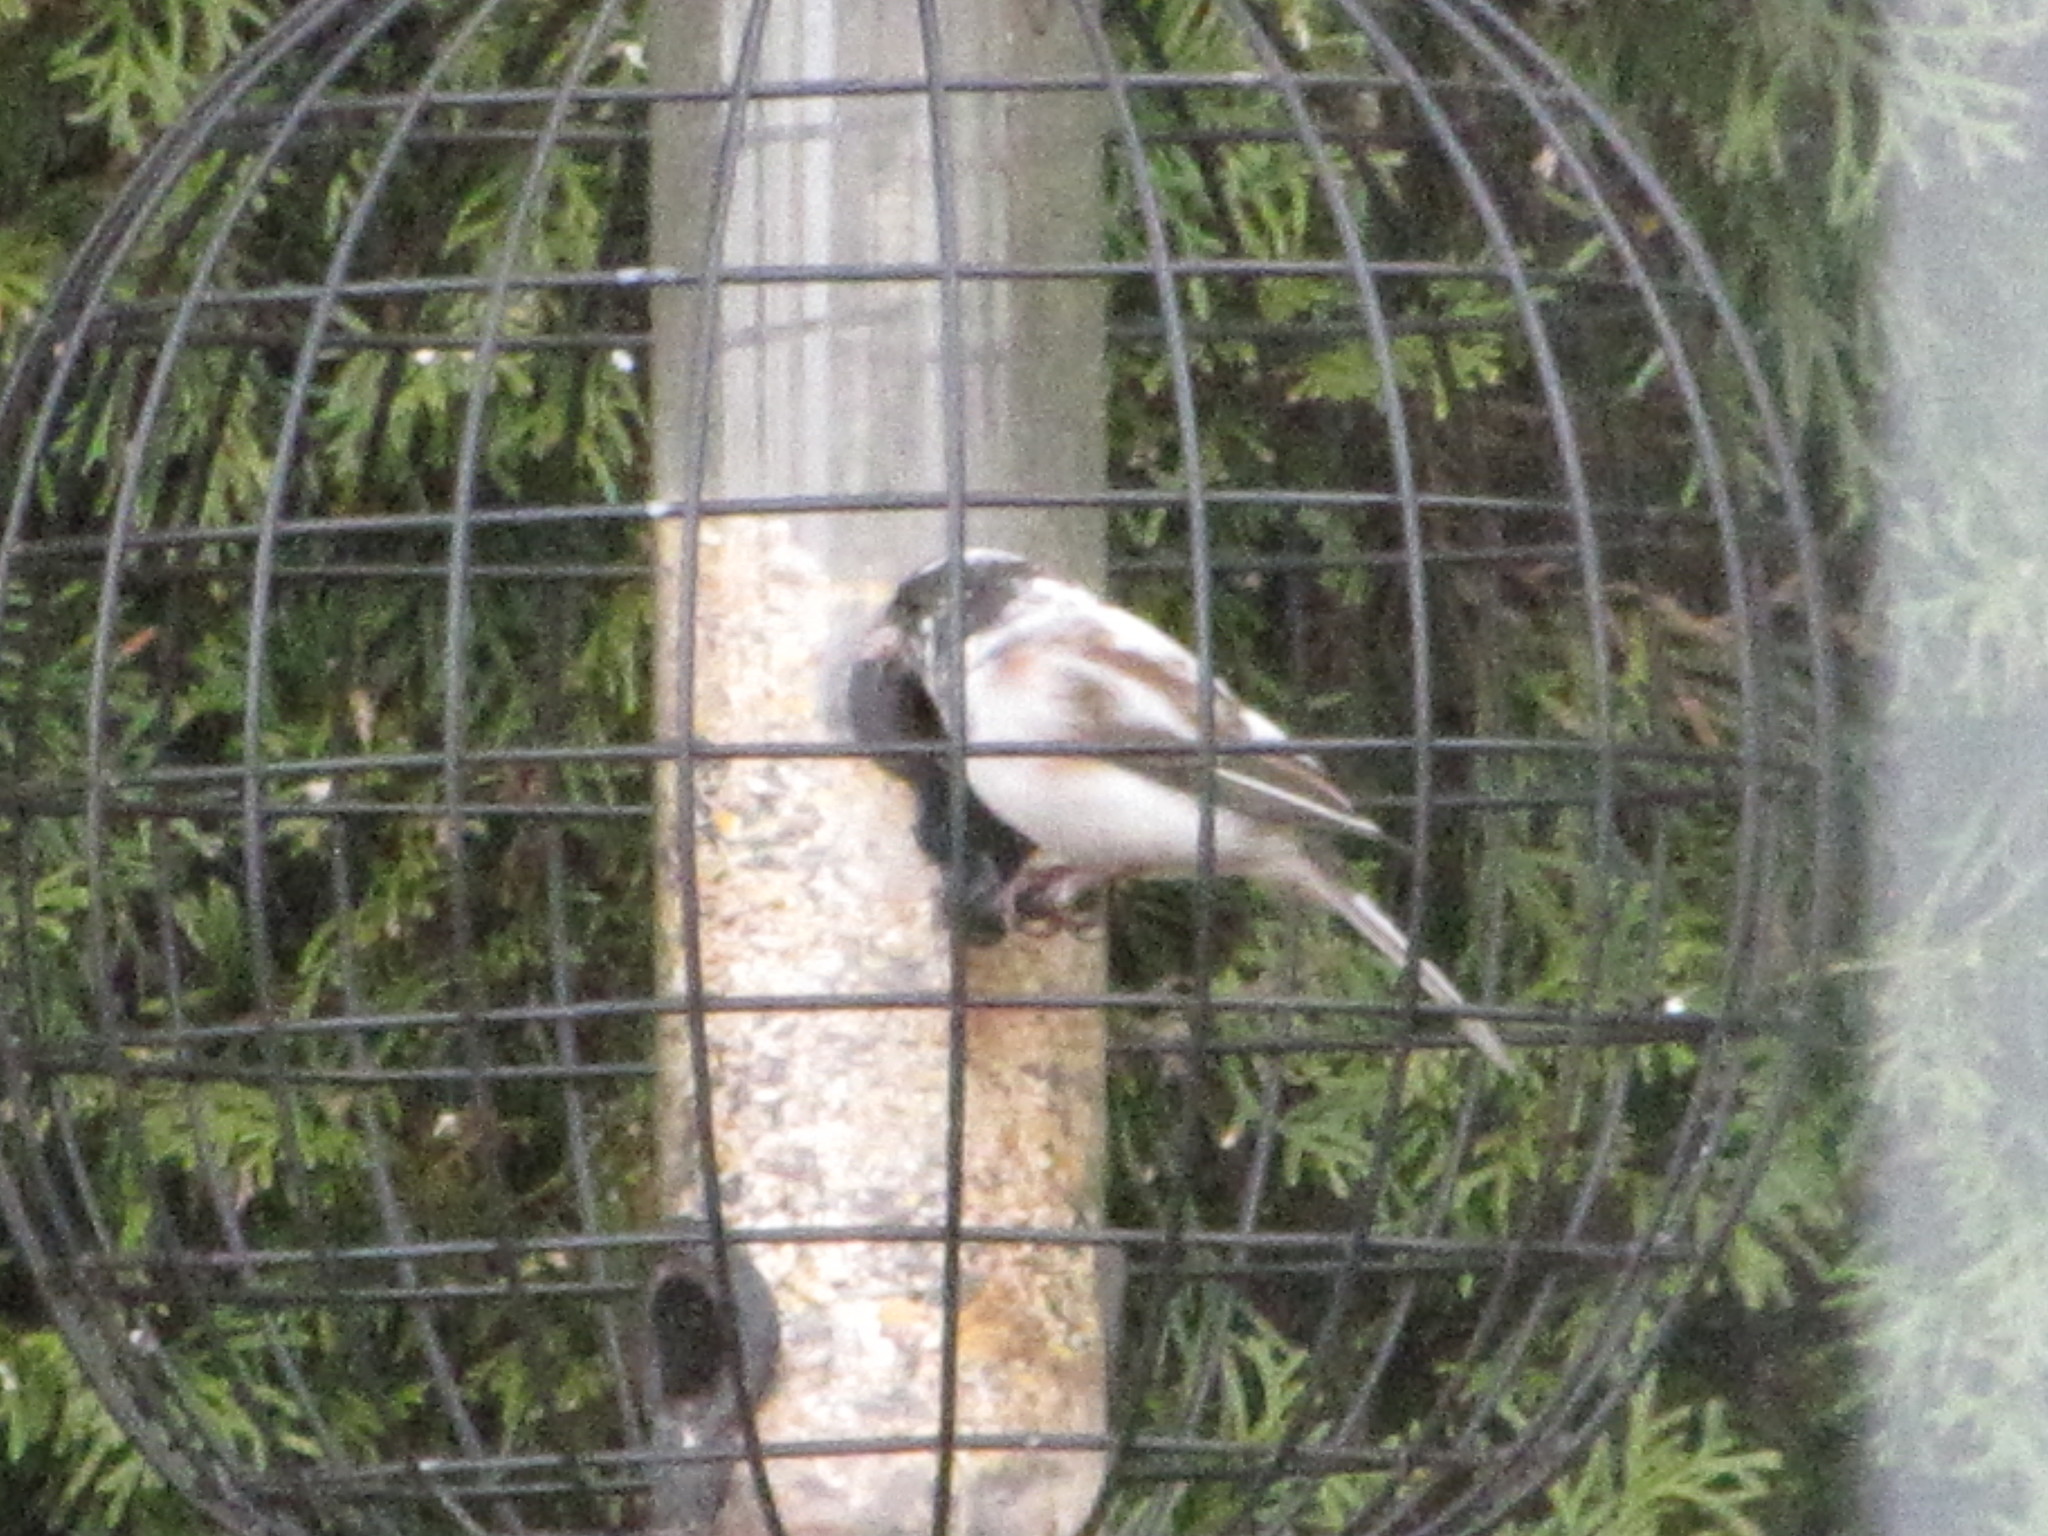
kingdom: Animalia
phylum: Chordata
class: Aves
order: Passeriformes
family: Passerellidae
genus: Junco
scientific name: Junco hyemalis
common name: Dark-eyed junco
